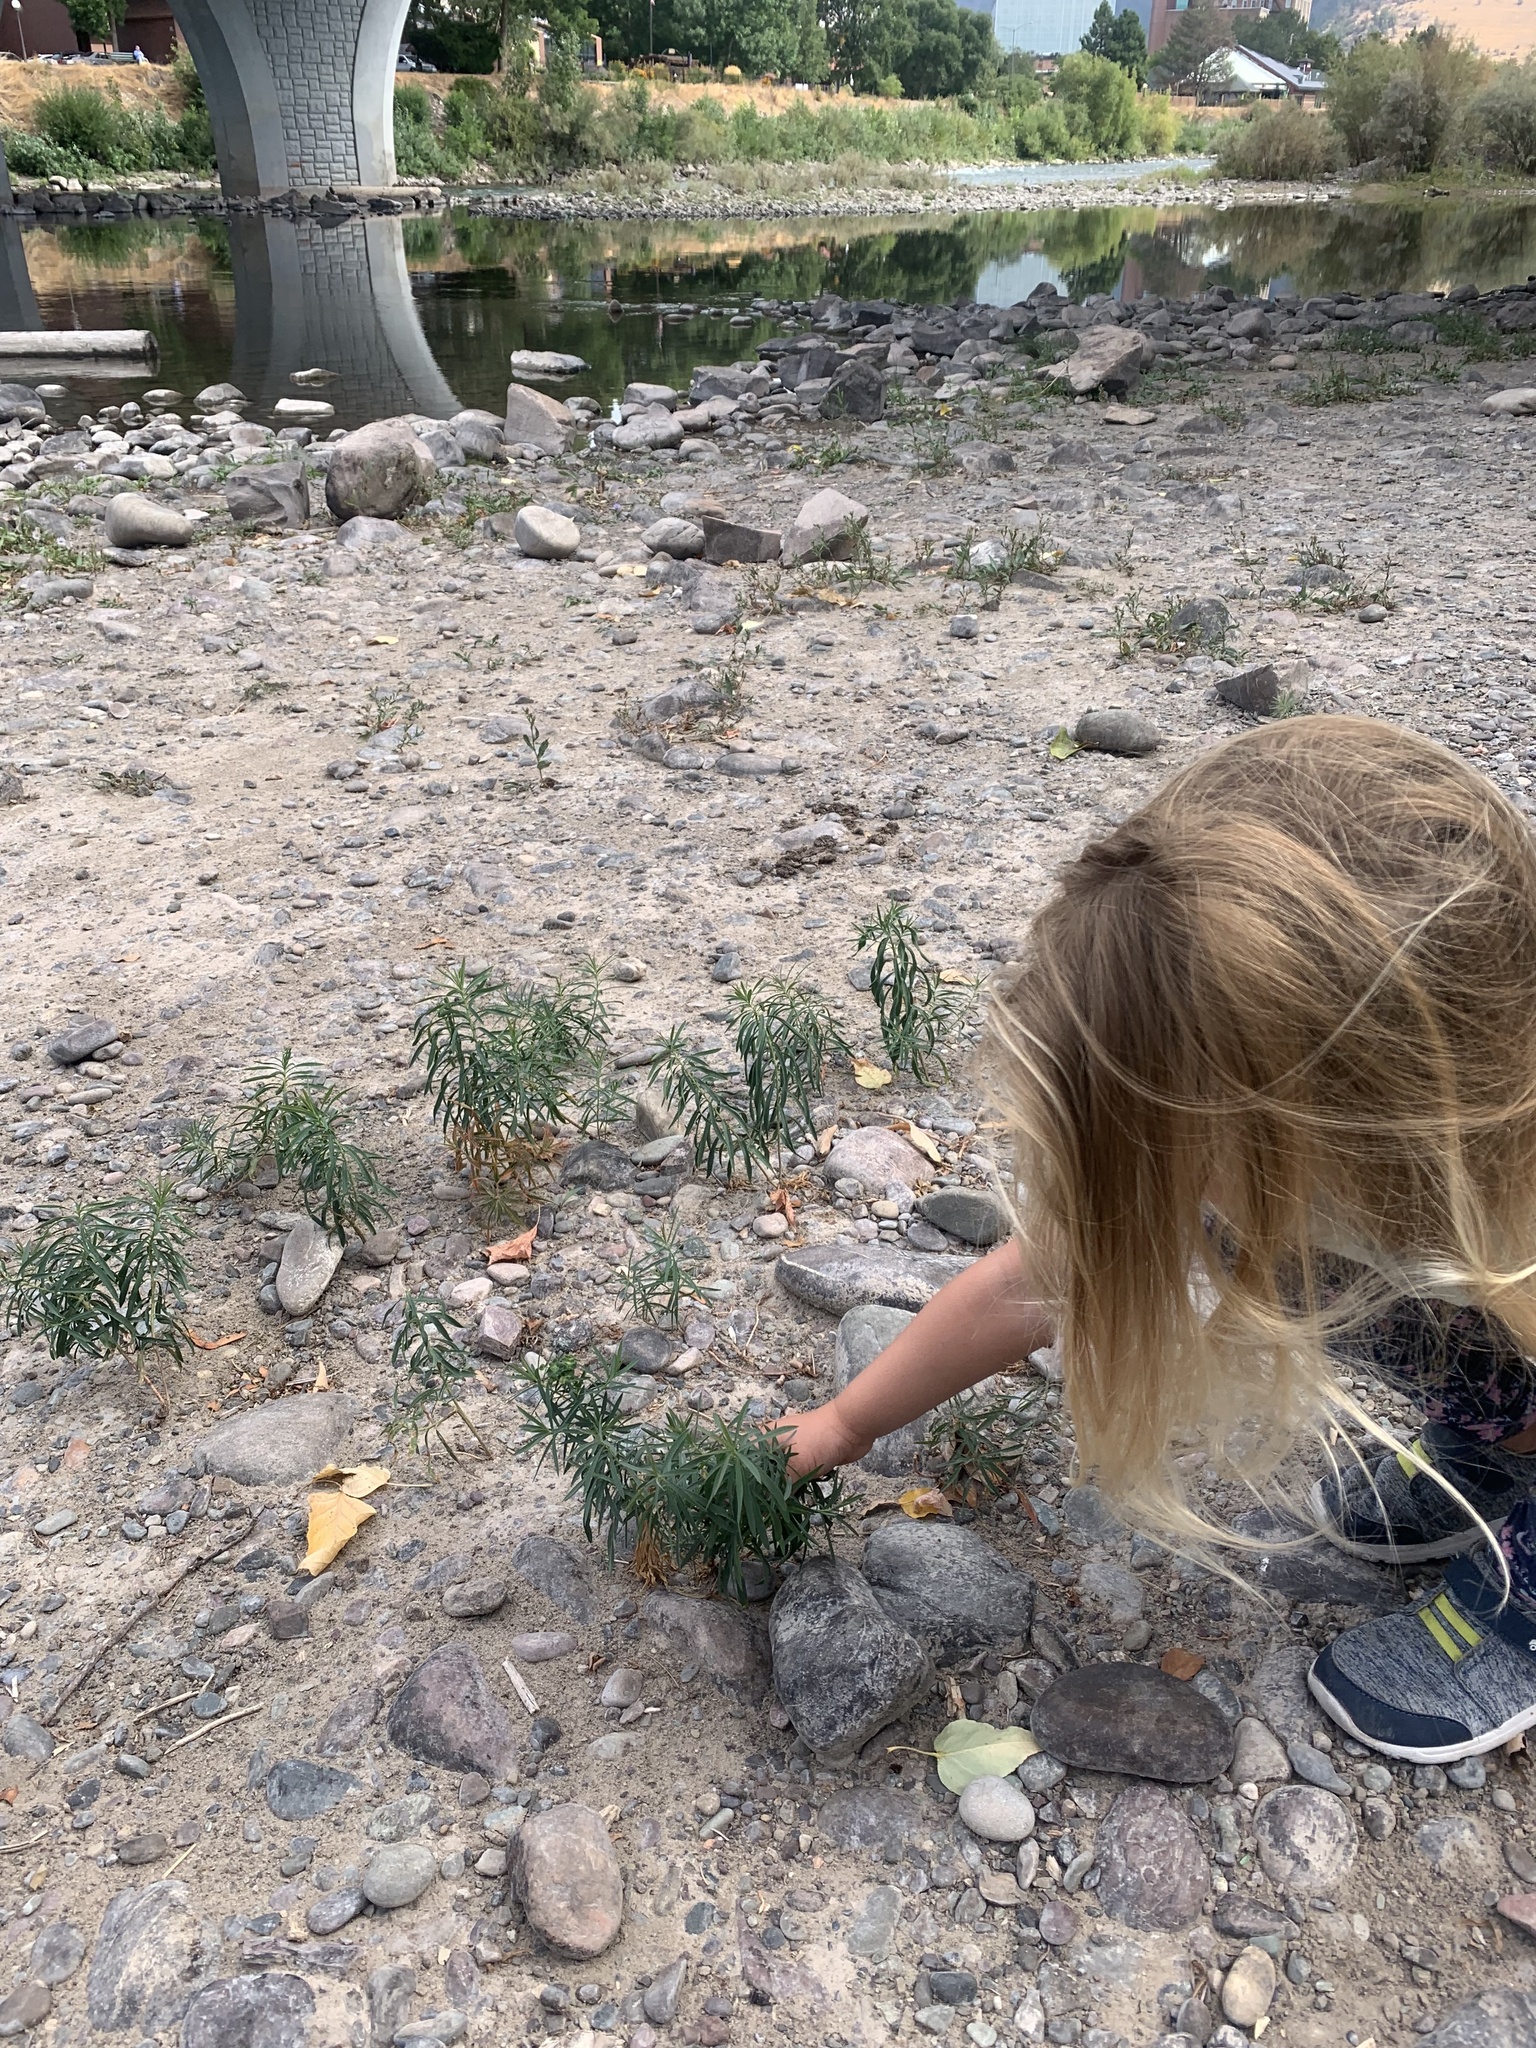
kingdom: Plantae
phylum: Tracheophyta
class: Magnoliopsida
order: Malpighiales
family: Euphorbiaceae
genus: Euphorbia
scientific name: Euphorbia virgata
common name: Leafy spurge
